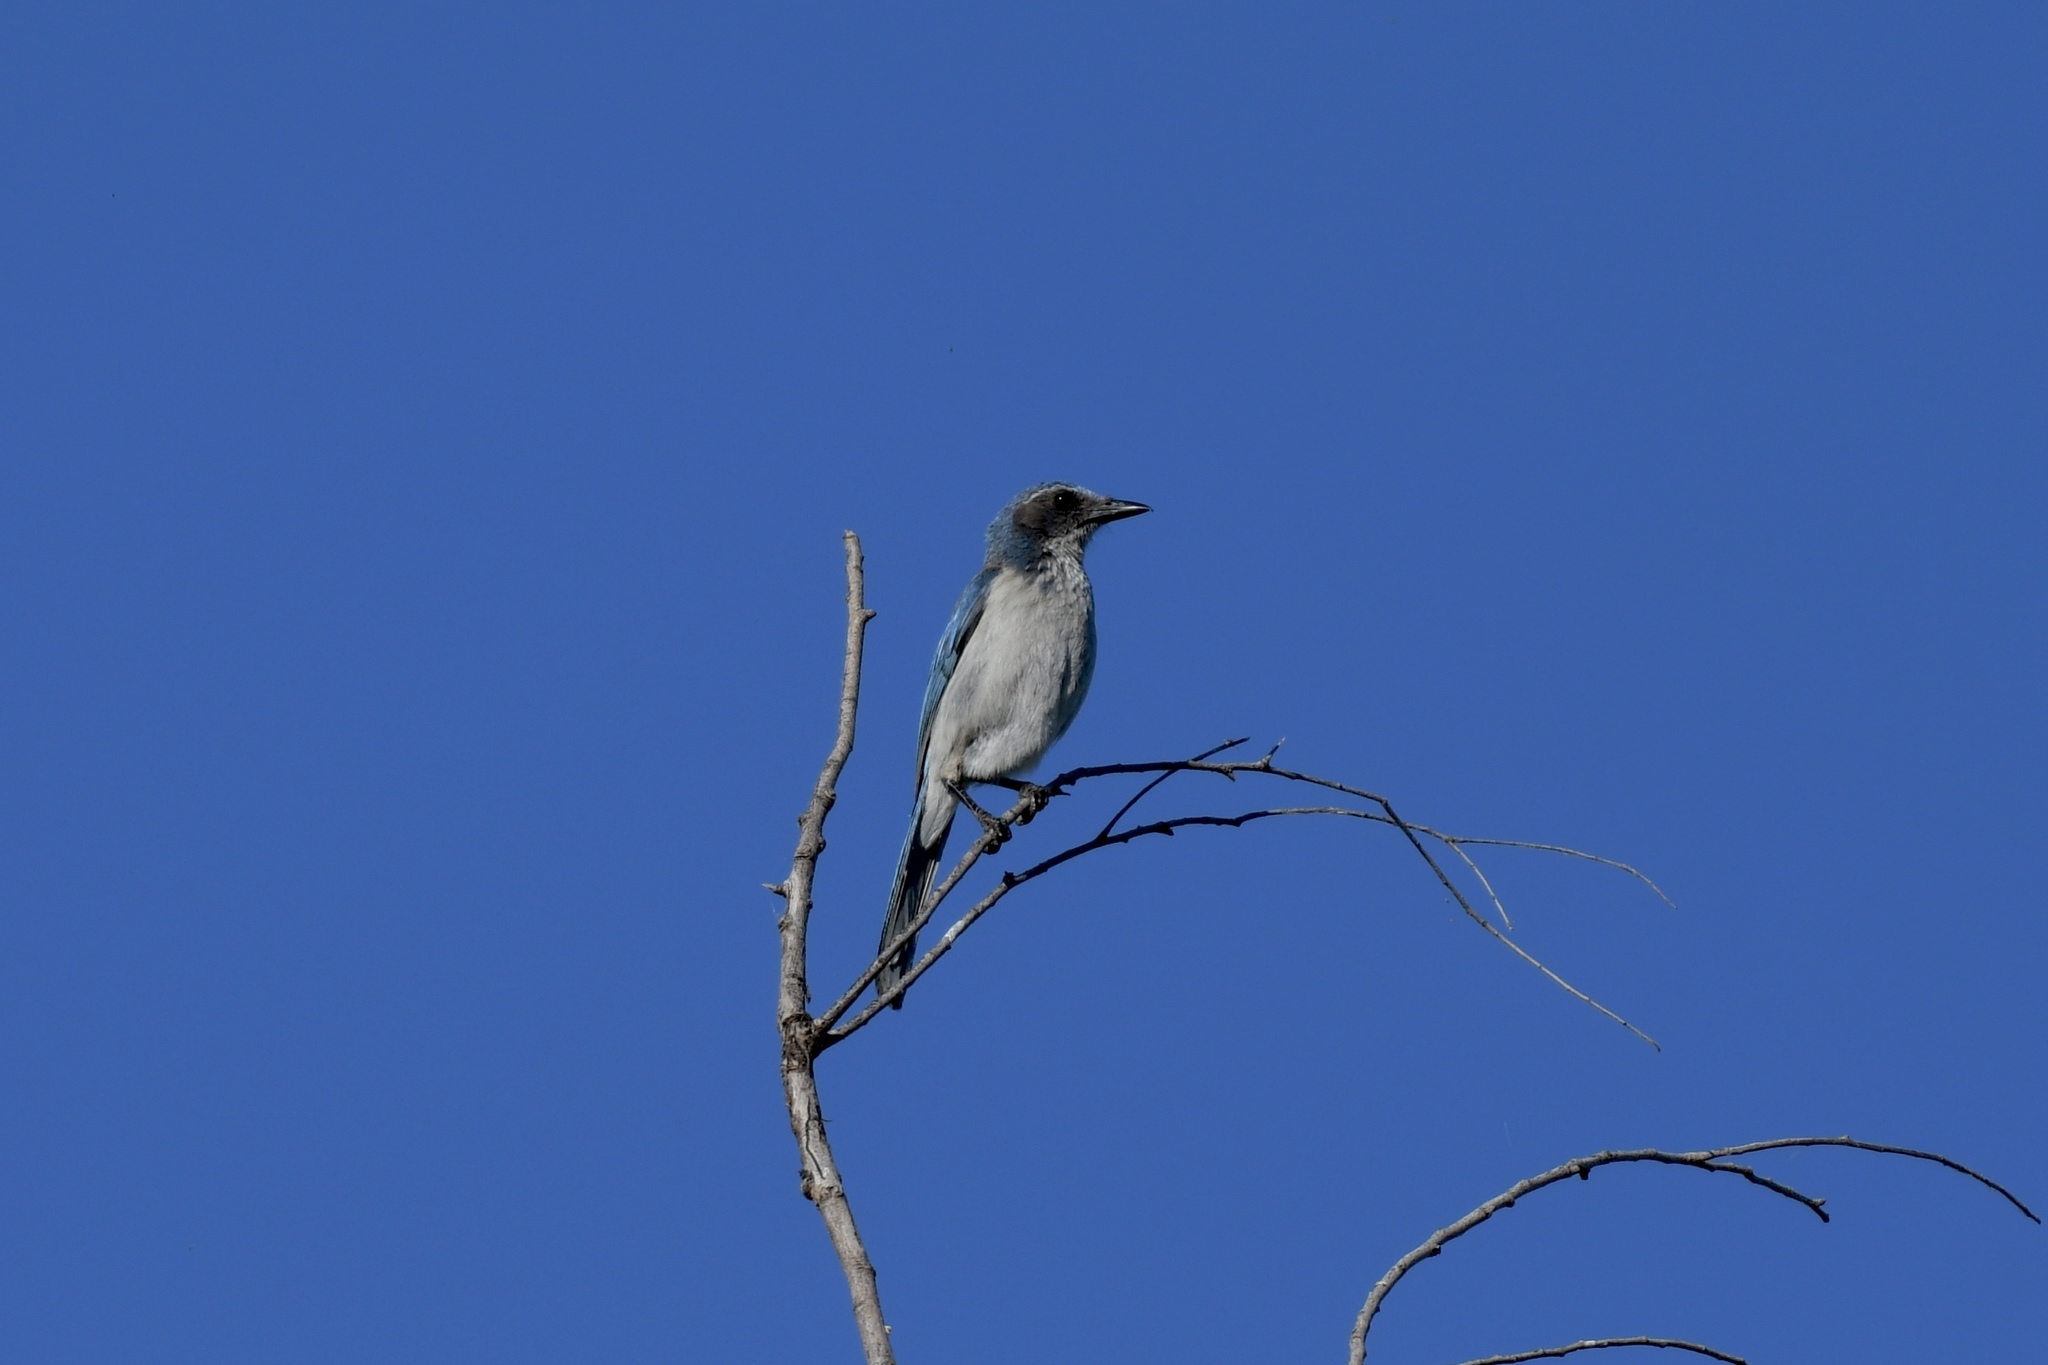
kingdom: Animalia
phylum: Chordata
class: Aves
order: Passeriformes
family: Corvidae
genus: Aphelocoma
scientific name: Aphelocoma californica
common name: California scrub-jay
